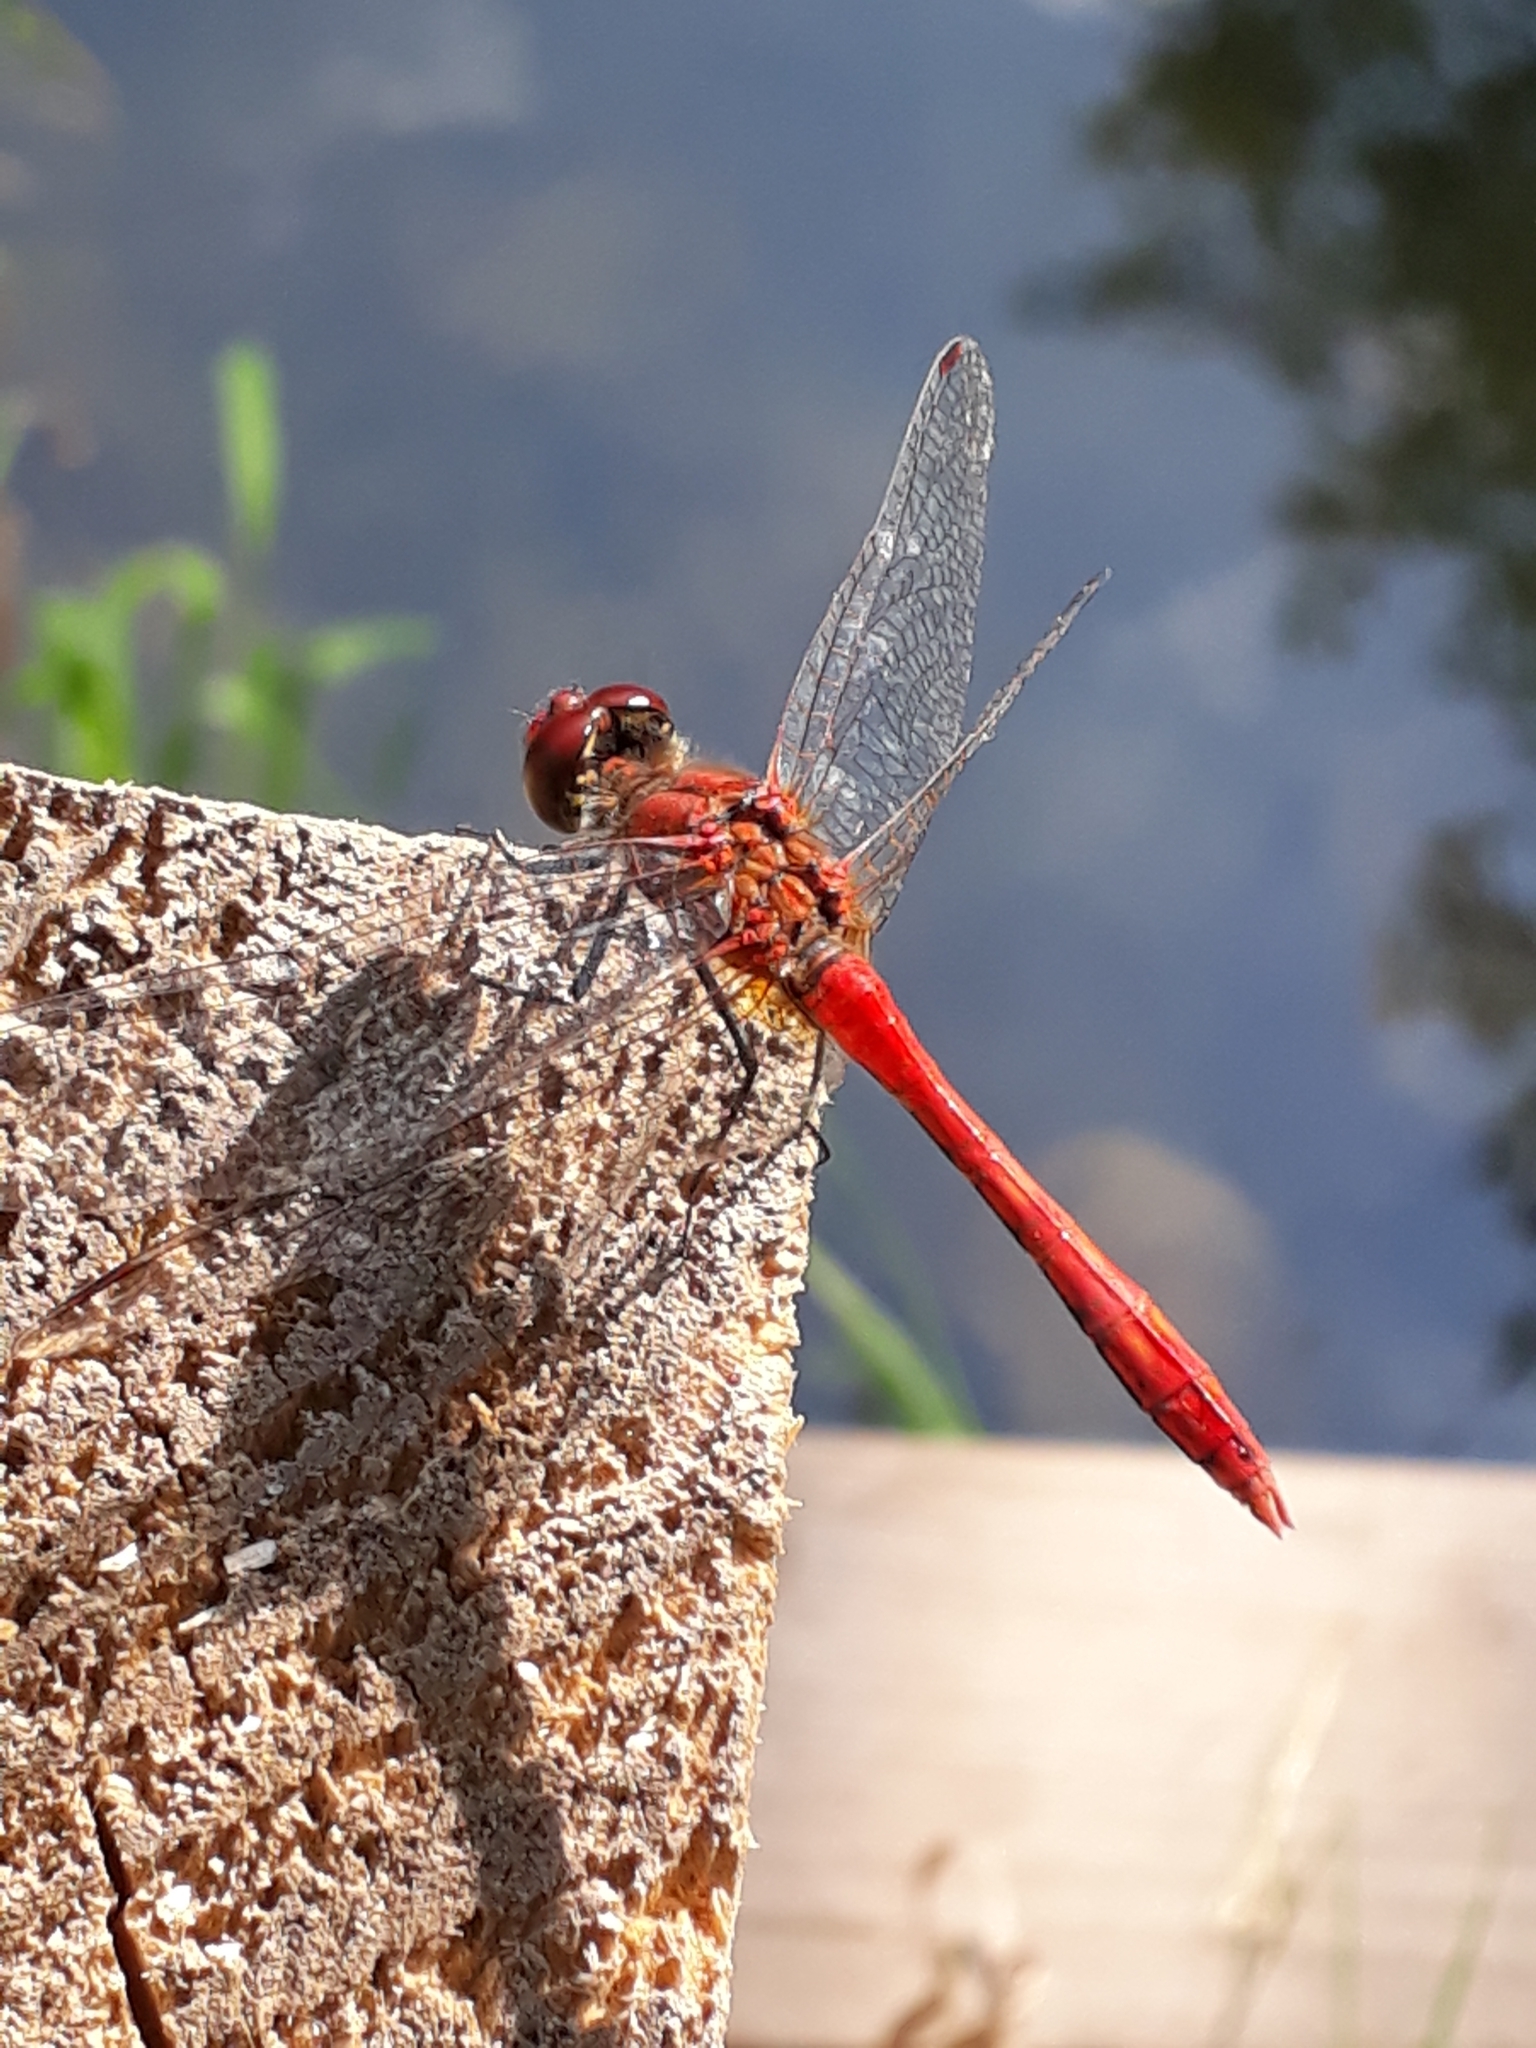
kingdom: Animalia
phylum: Arthropoda
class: Insecta
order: Odonata
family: Libellulidae
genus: Sympetrum
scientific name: Sympetrum sanguineum
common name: Ruddy darter
